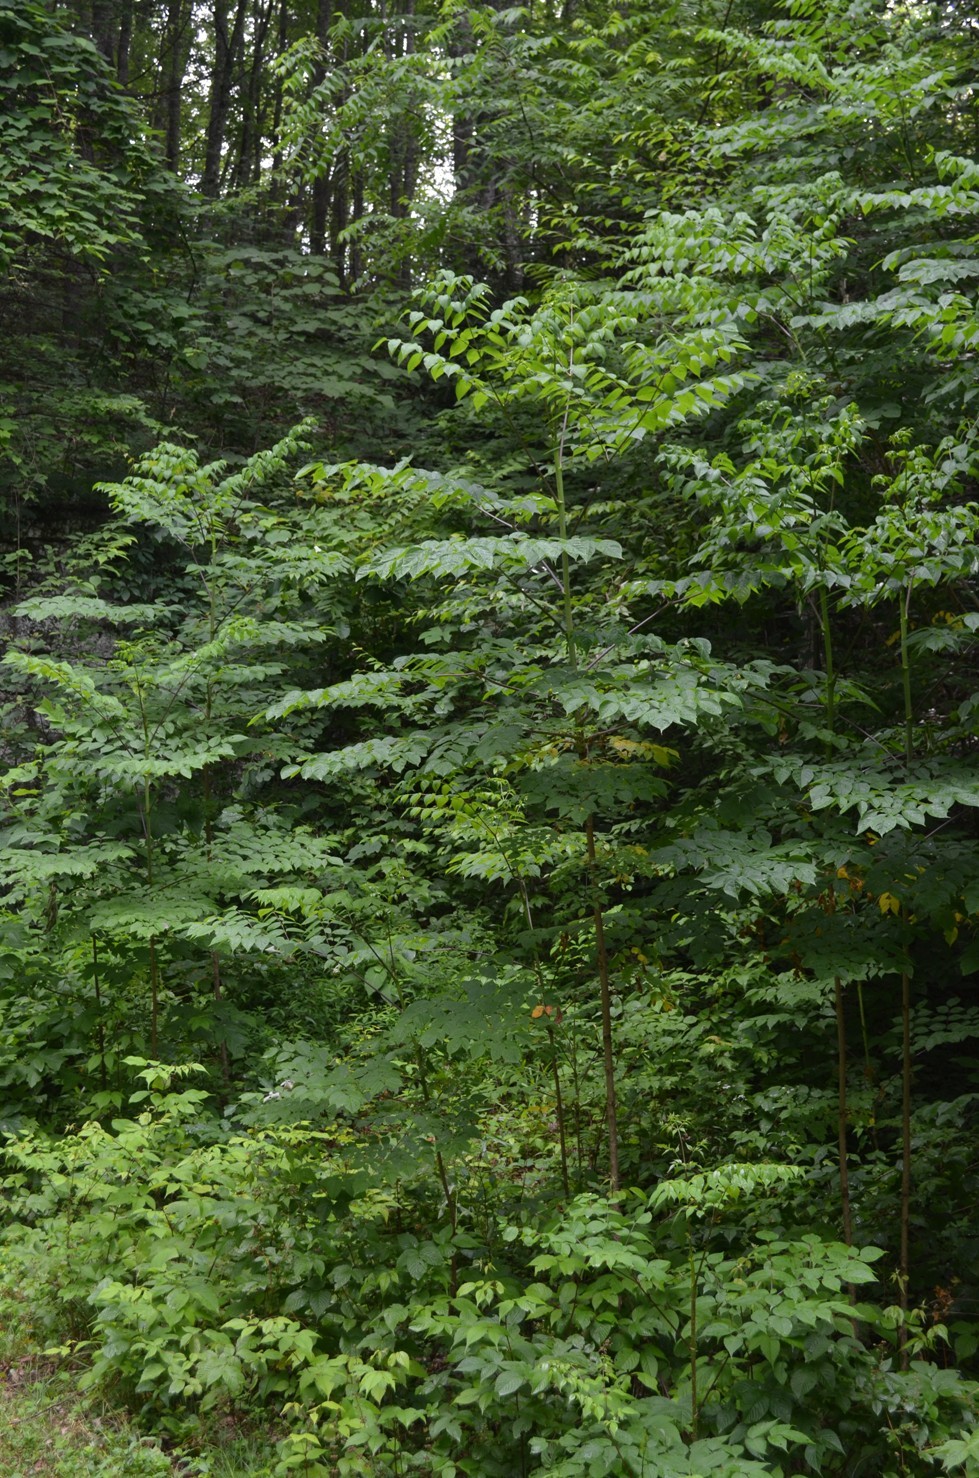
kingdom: Plantae
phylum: Tracheophyta
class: Magnoliopsida
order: Apiales
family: Araliaceae
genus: Aralia
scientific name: Aralia spinosa
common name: Hercules'-club
